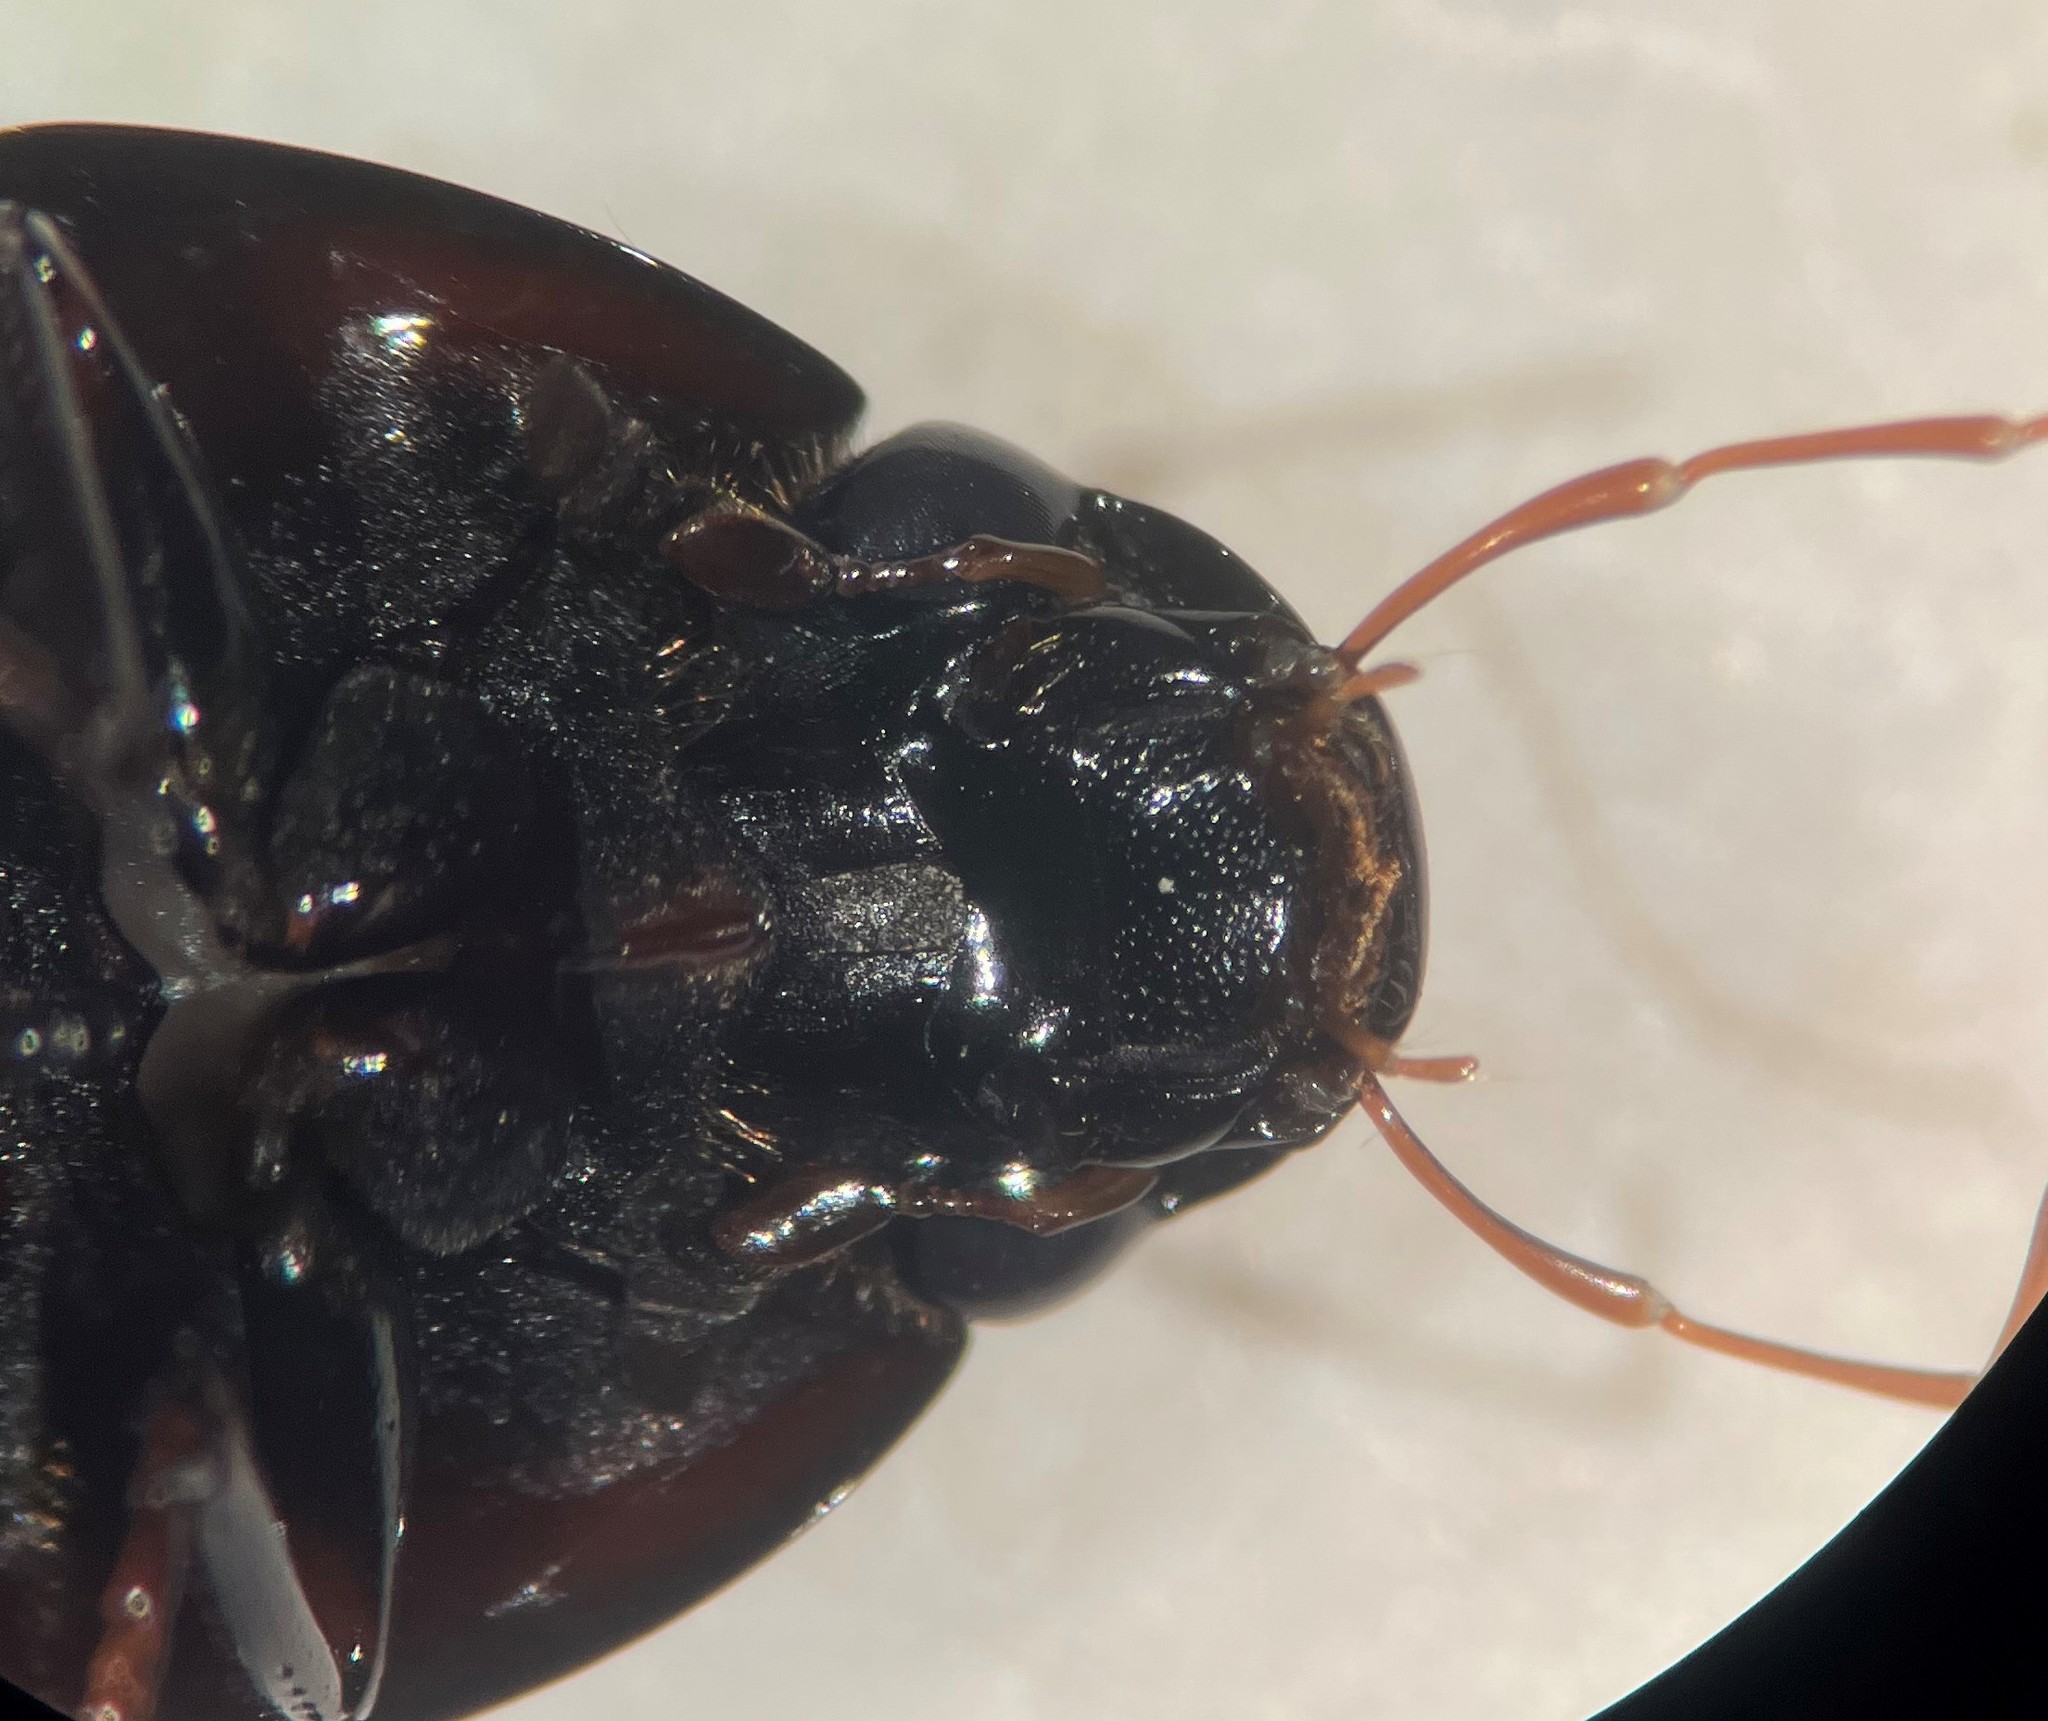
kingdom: Animalia
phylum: Arthropoda
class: Insecta
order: Coleoptera
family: Hydrophilidae
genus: Hydrobiomorpha
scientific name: Hydrobiomorpha casta
